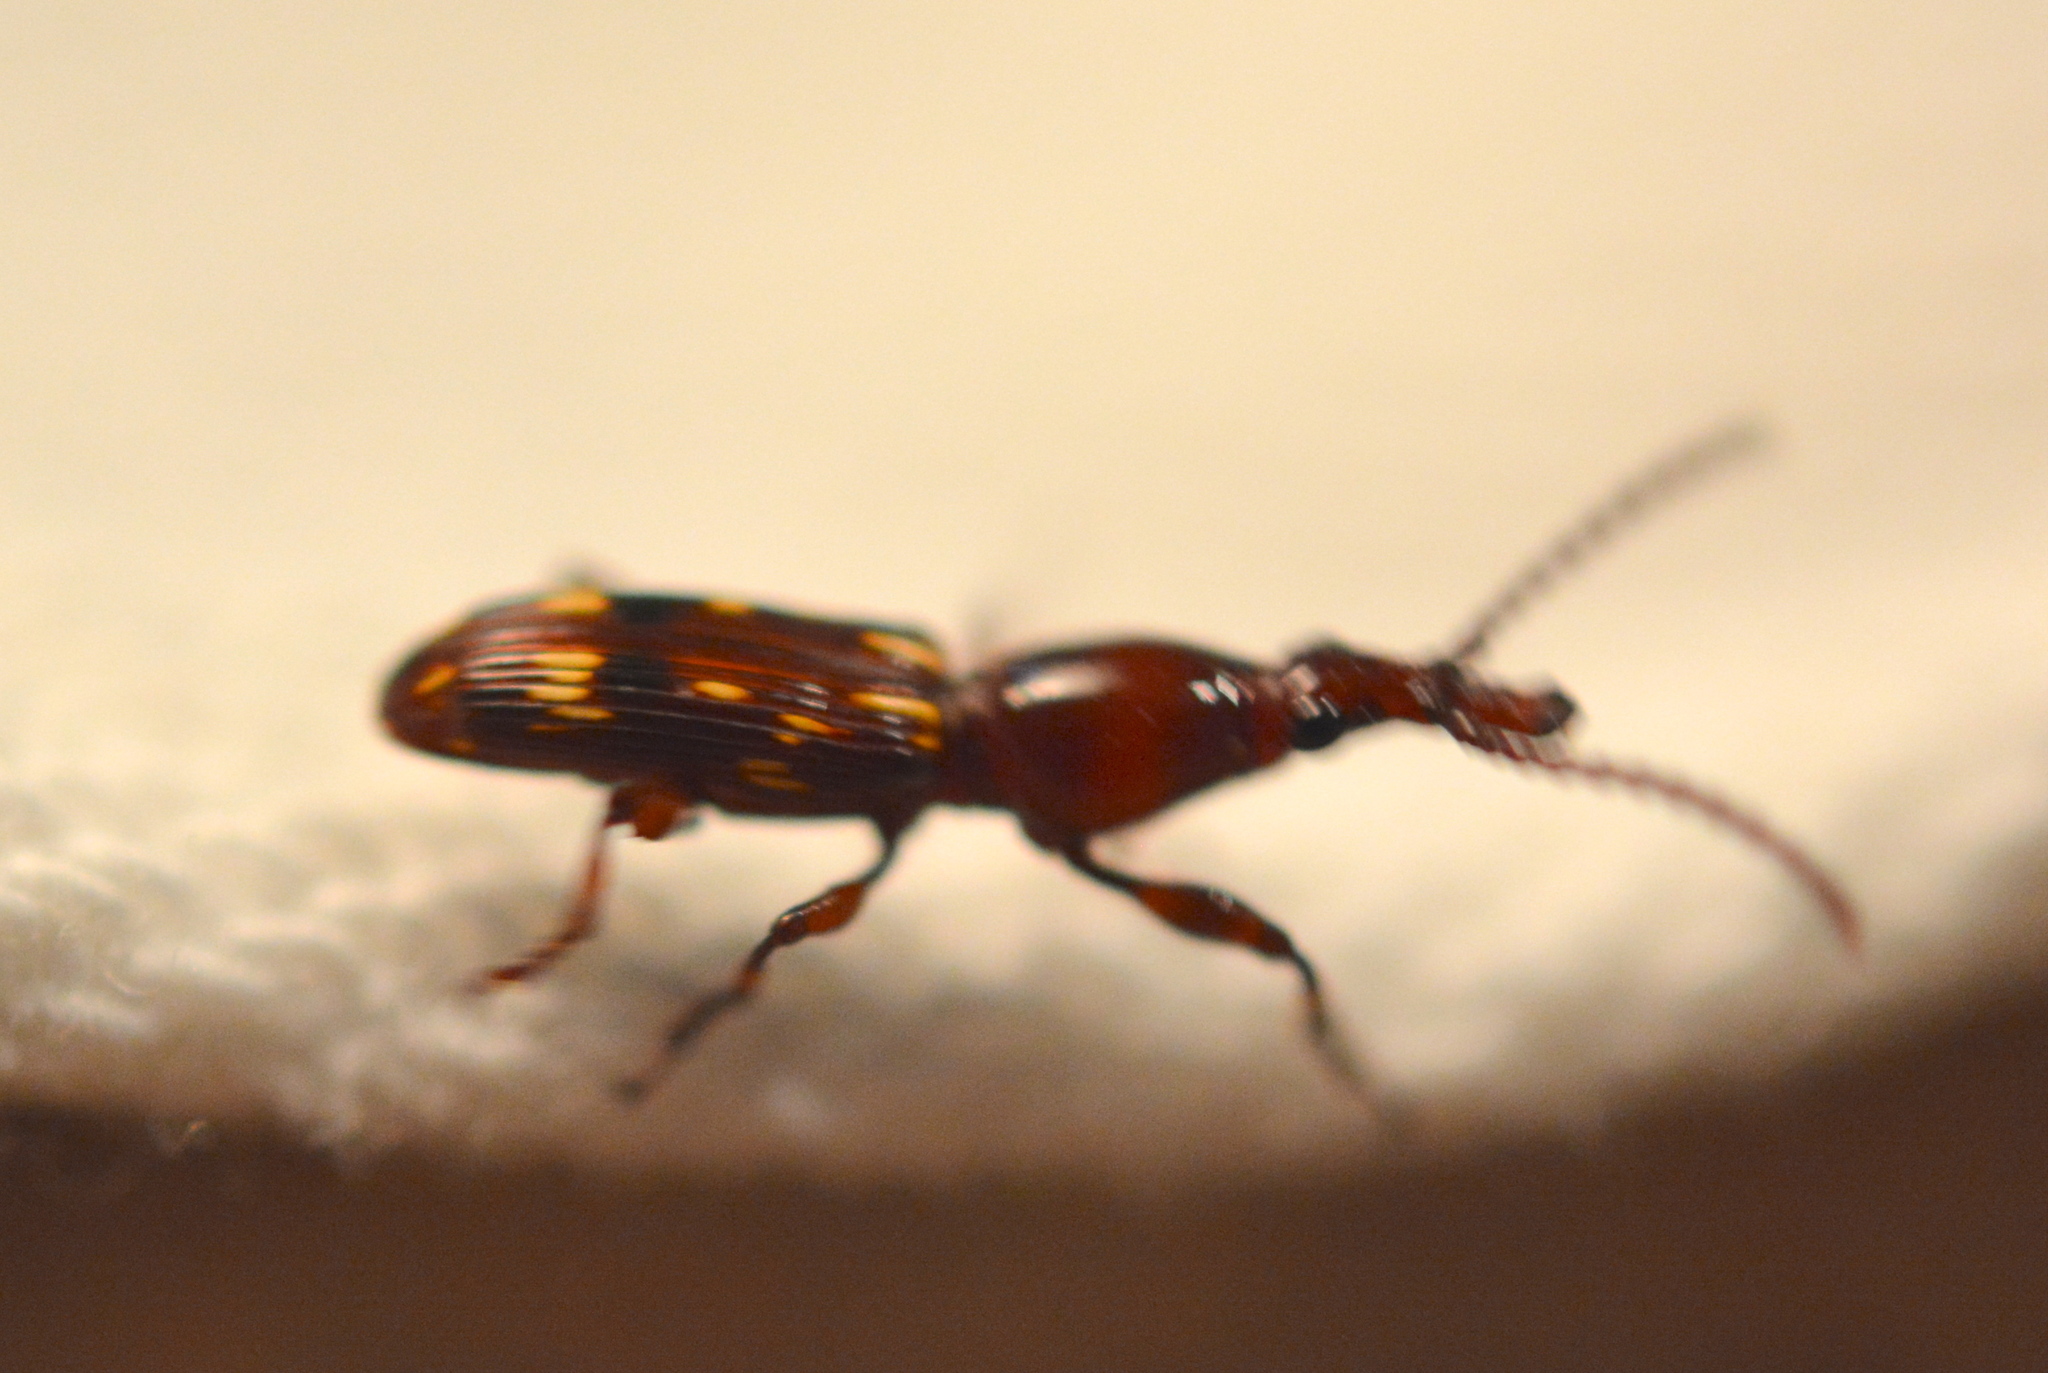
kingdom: Animalia
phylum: Arthropoda
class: Insecta
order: Coleoptera
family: Brentidae
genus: Arrenodes
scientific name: Arrenodes minutus
